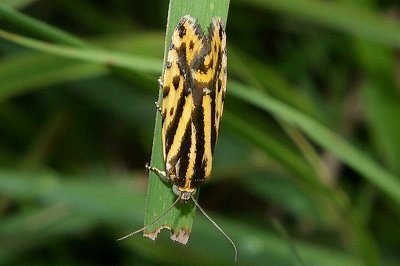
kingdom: Animalia
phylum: Arthropoda
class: Insecta
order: Lepidoptera
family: Noctuidae
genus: Acontia
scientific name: Acontia trabealis
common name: Spotted sulphur
